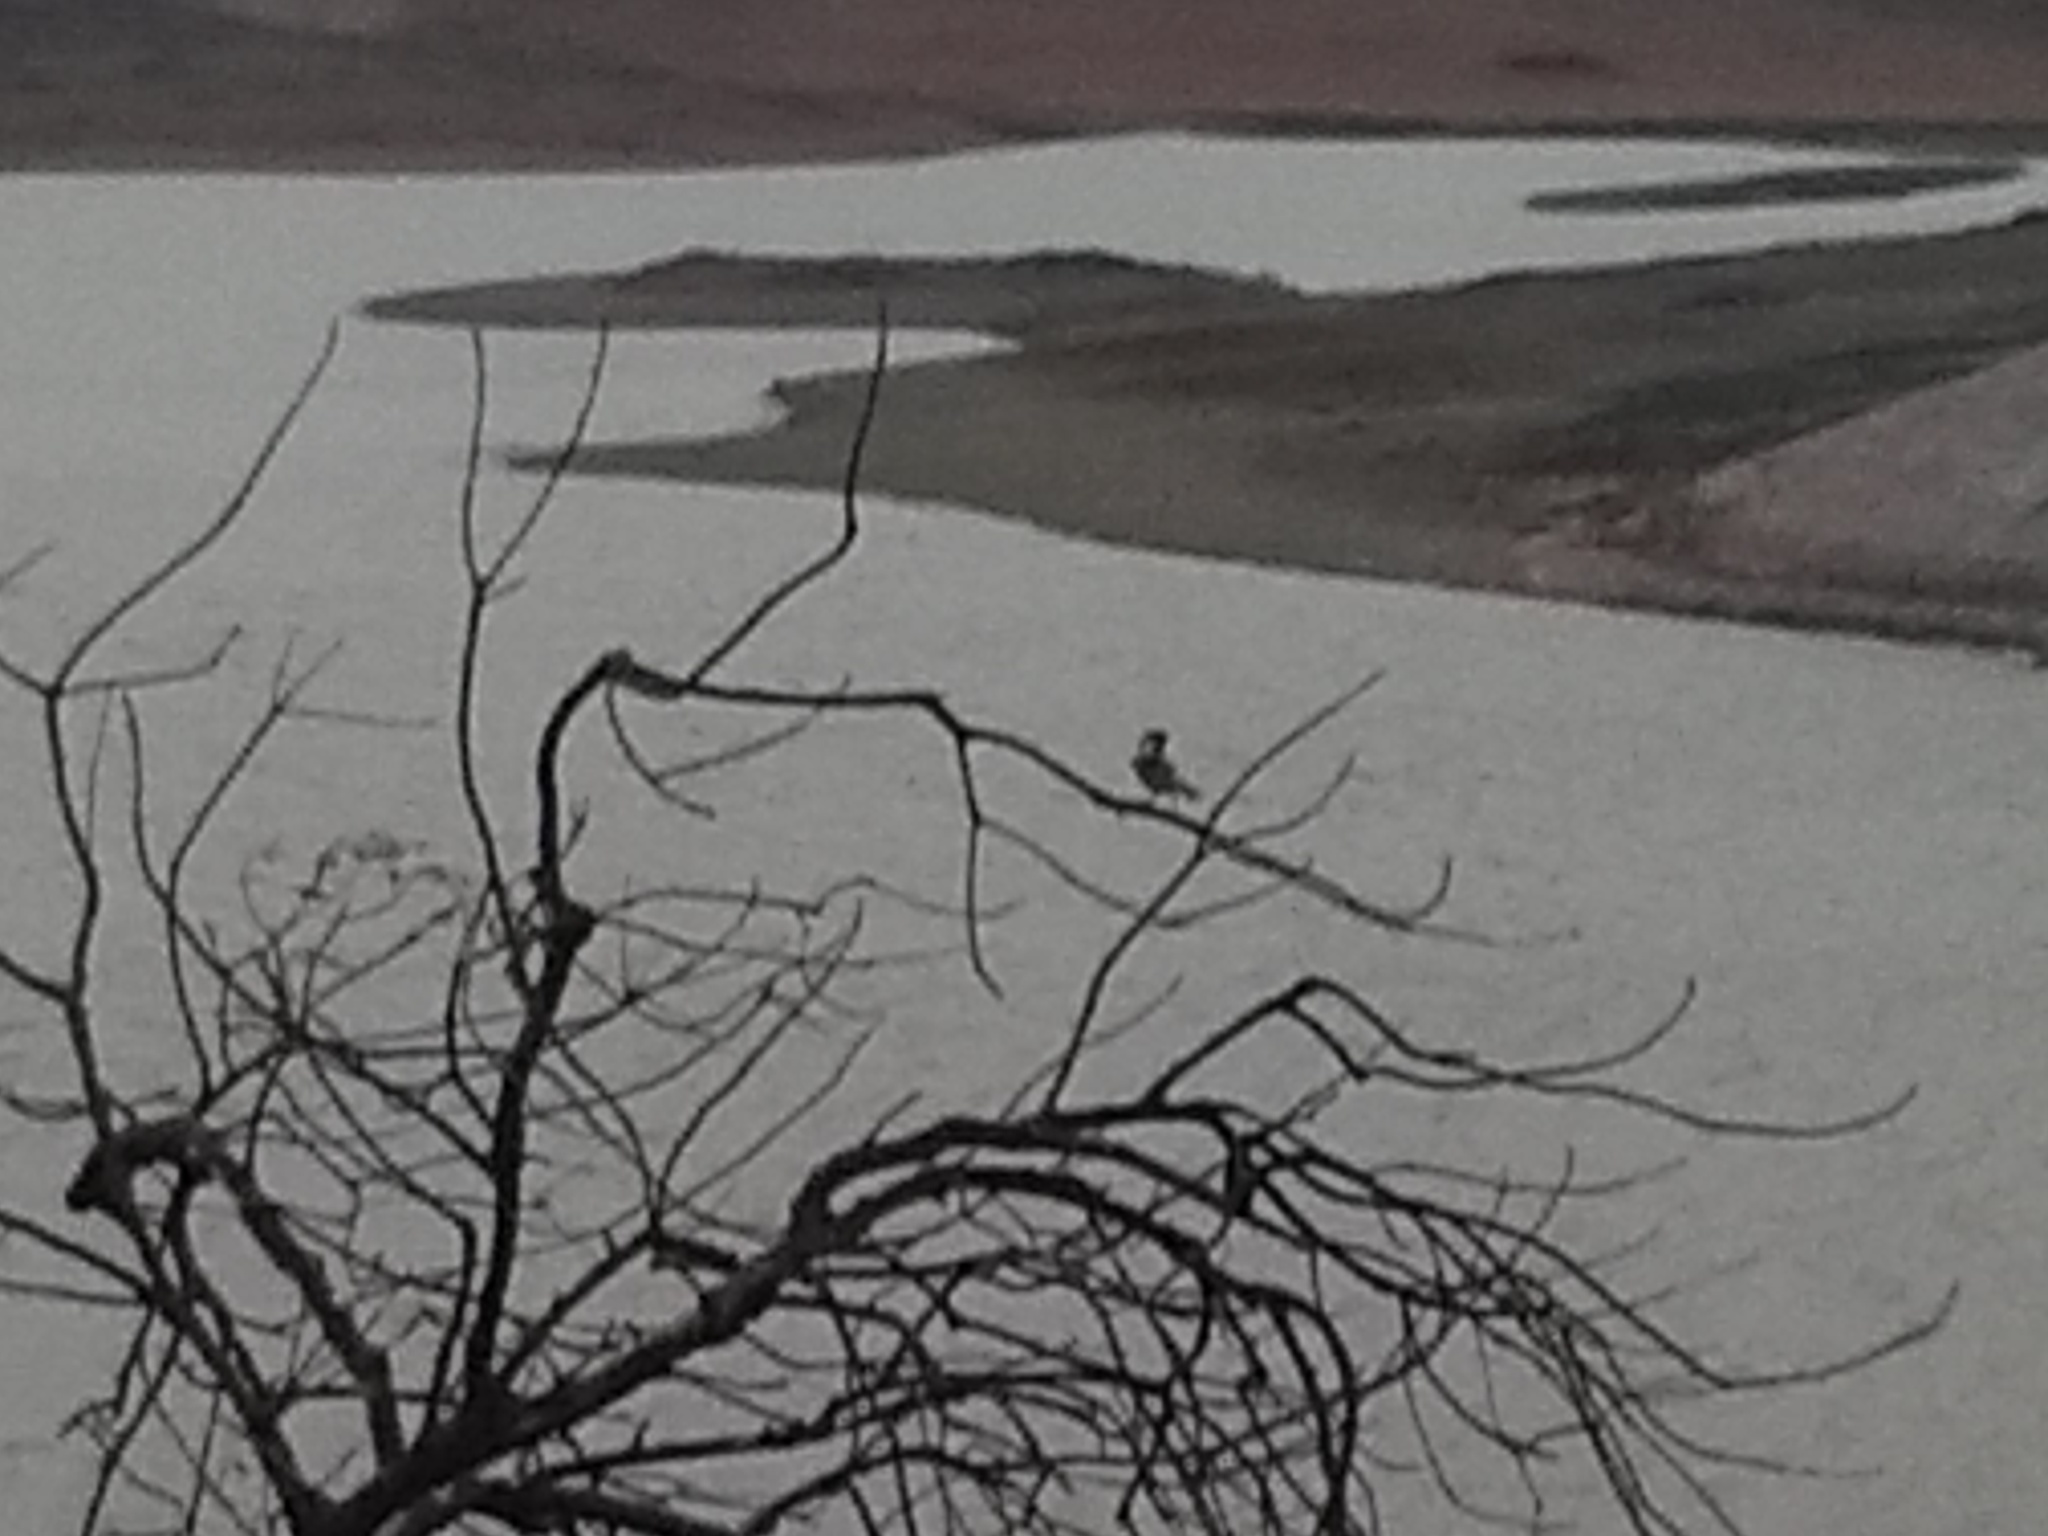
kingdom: Animalia
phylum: Chordata
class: Aves
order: Passeriformes
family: Passeridae
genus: Passer
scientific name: Passer domesticus
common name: House sparrow
